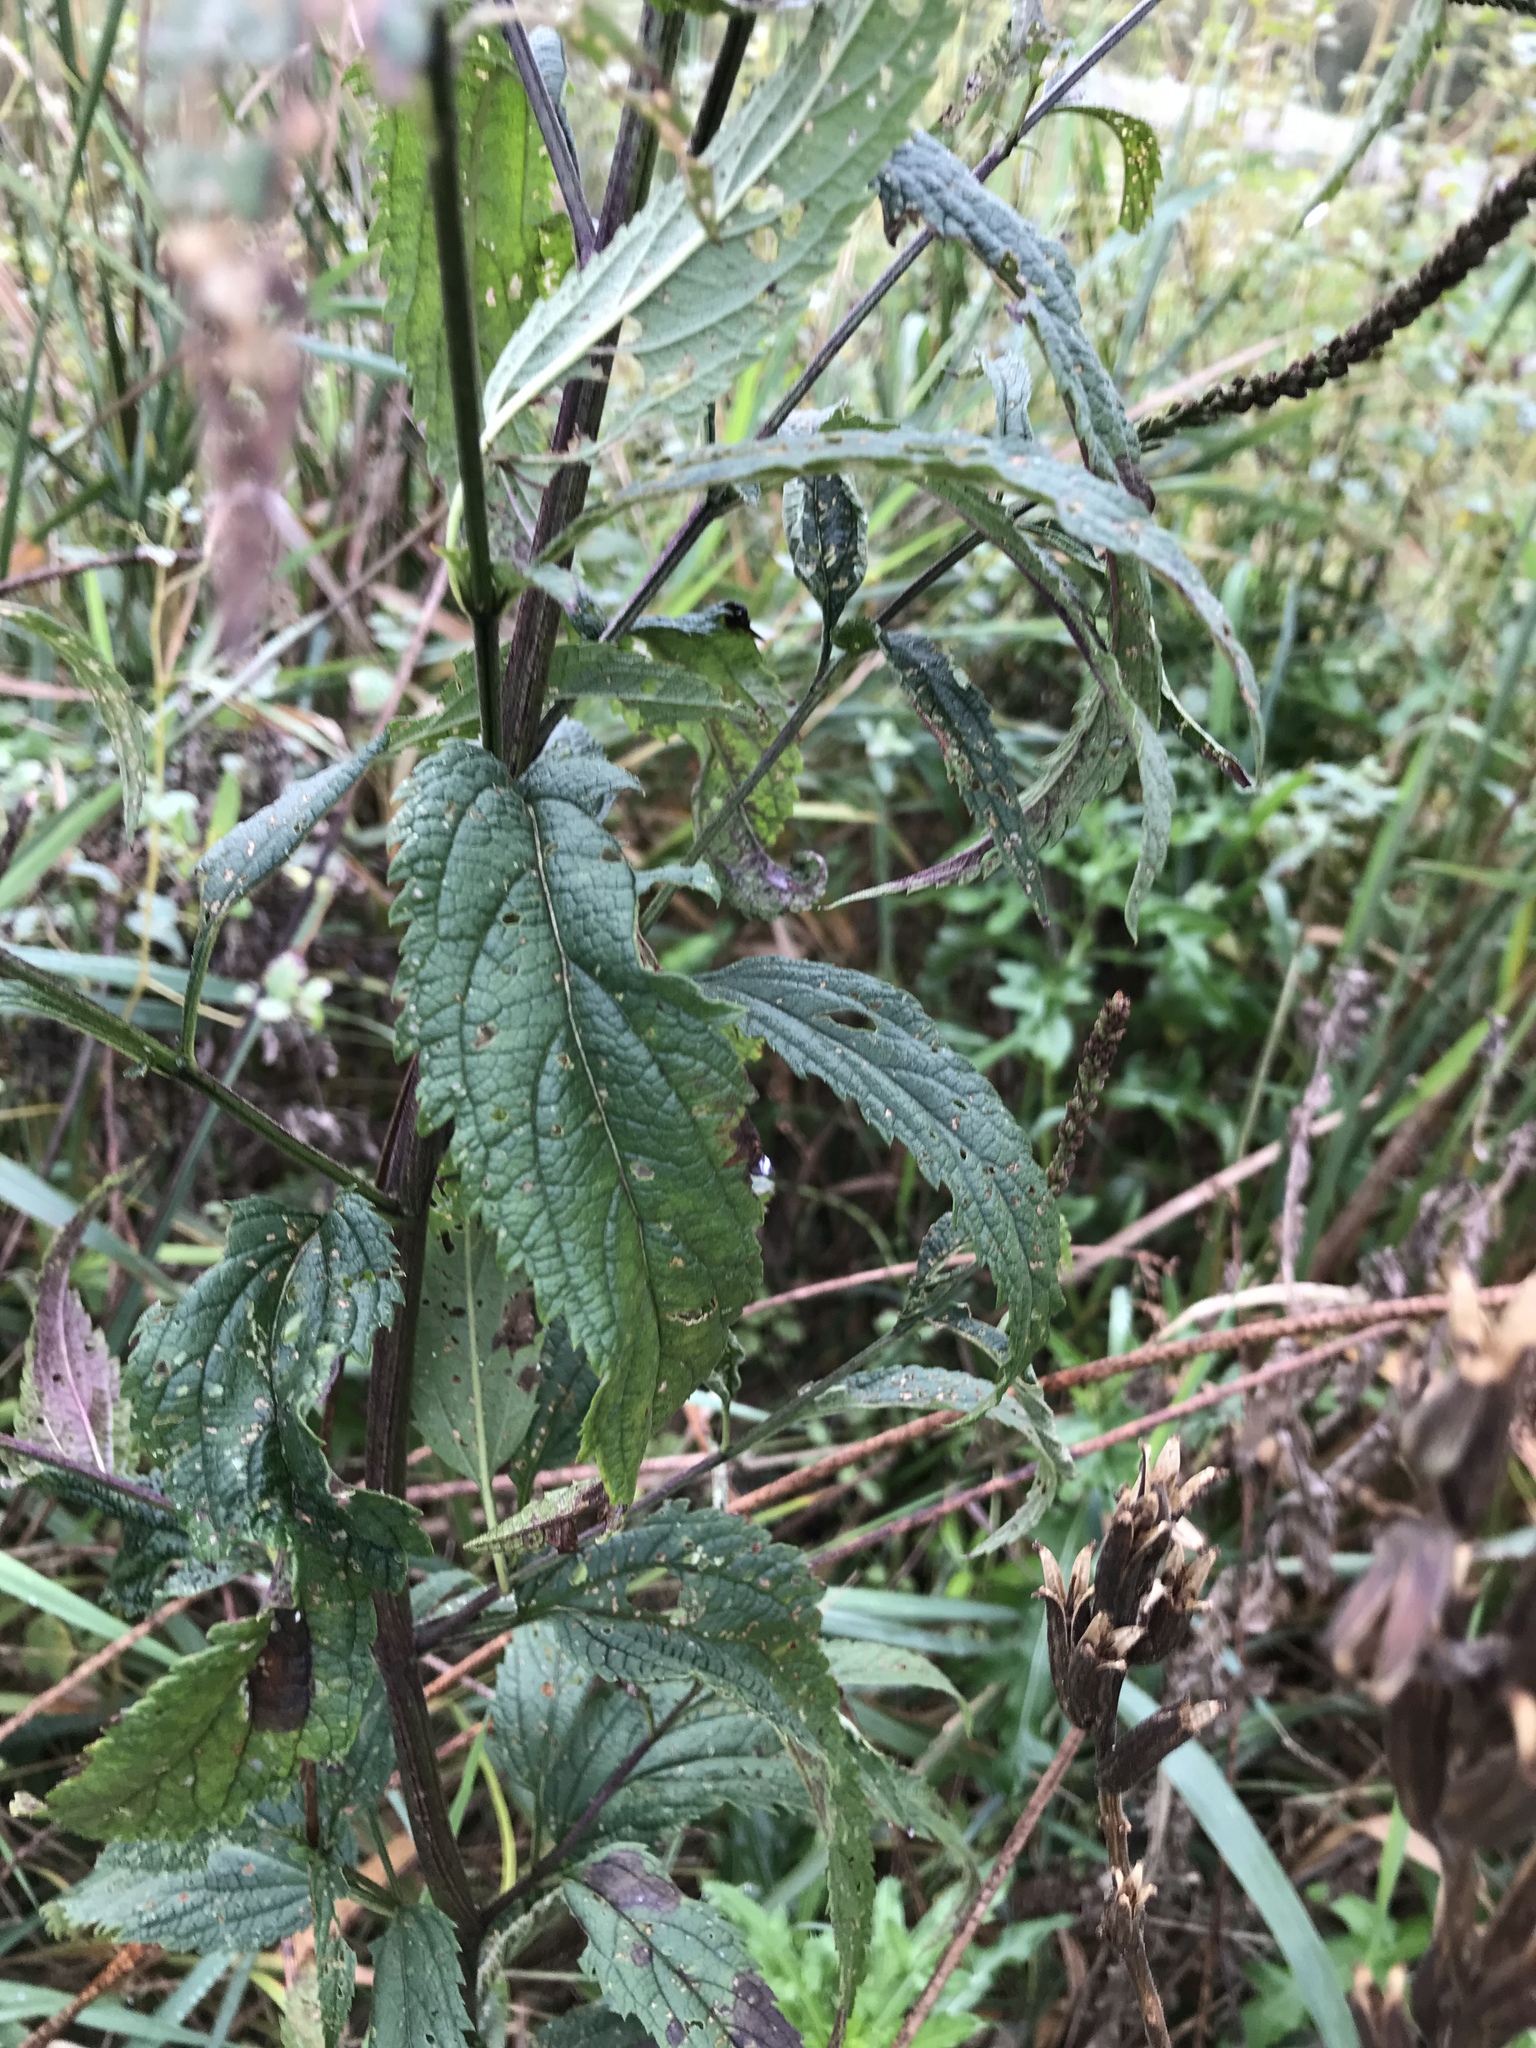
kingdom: Plantae
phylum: Tracheophyta
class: Magnoliopsida
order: Lamiales
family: Verbenaceae
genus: Verbena
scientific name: Verbena hastata
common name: American blue vervain
